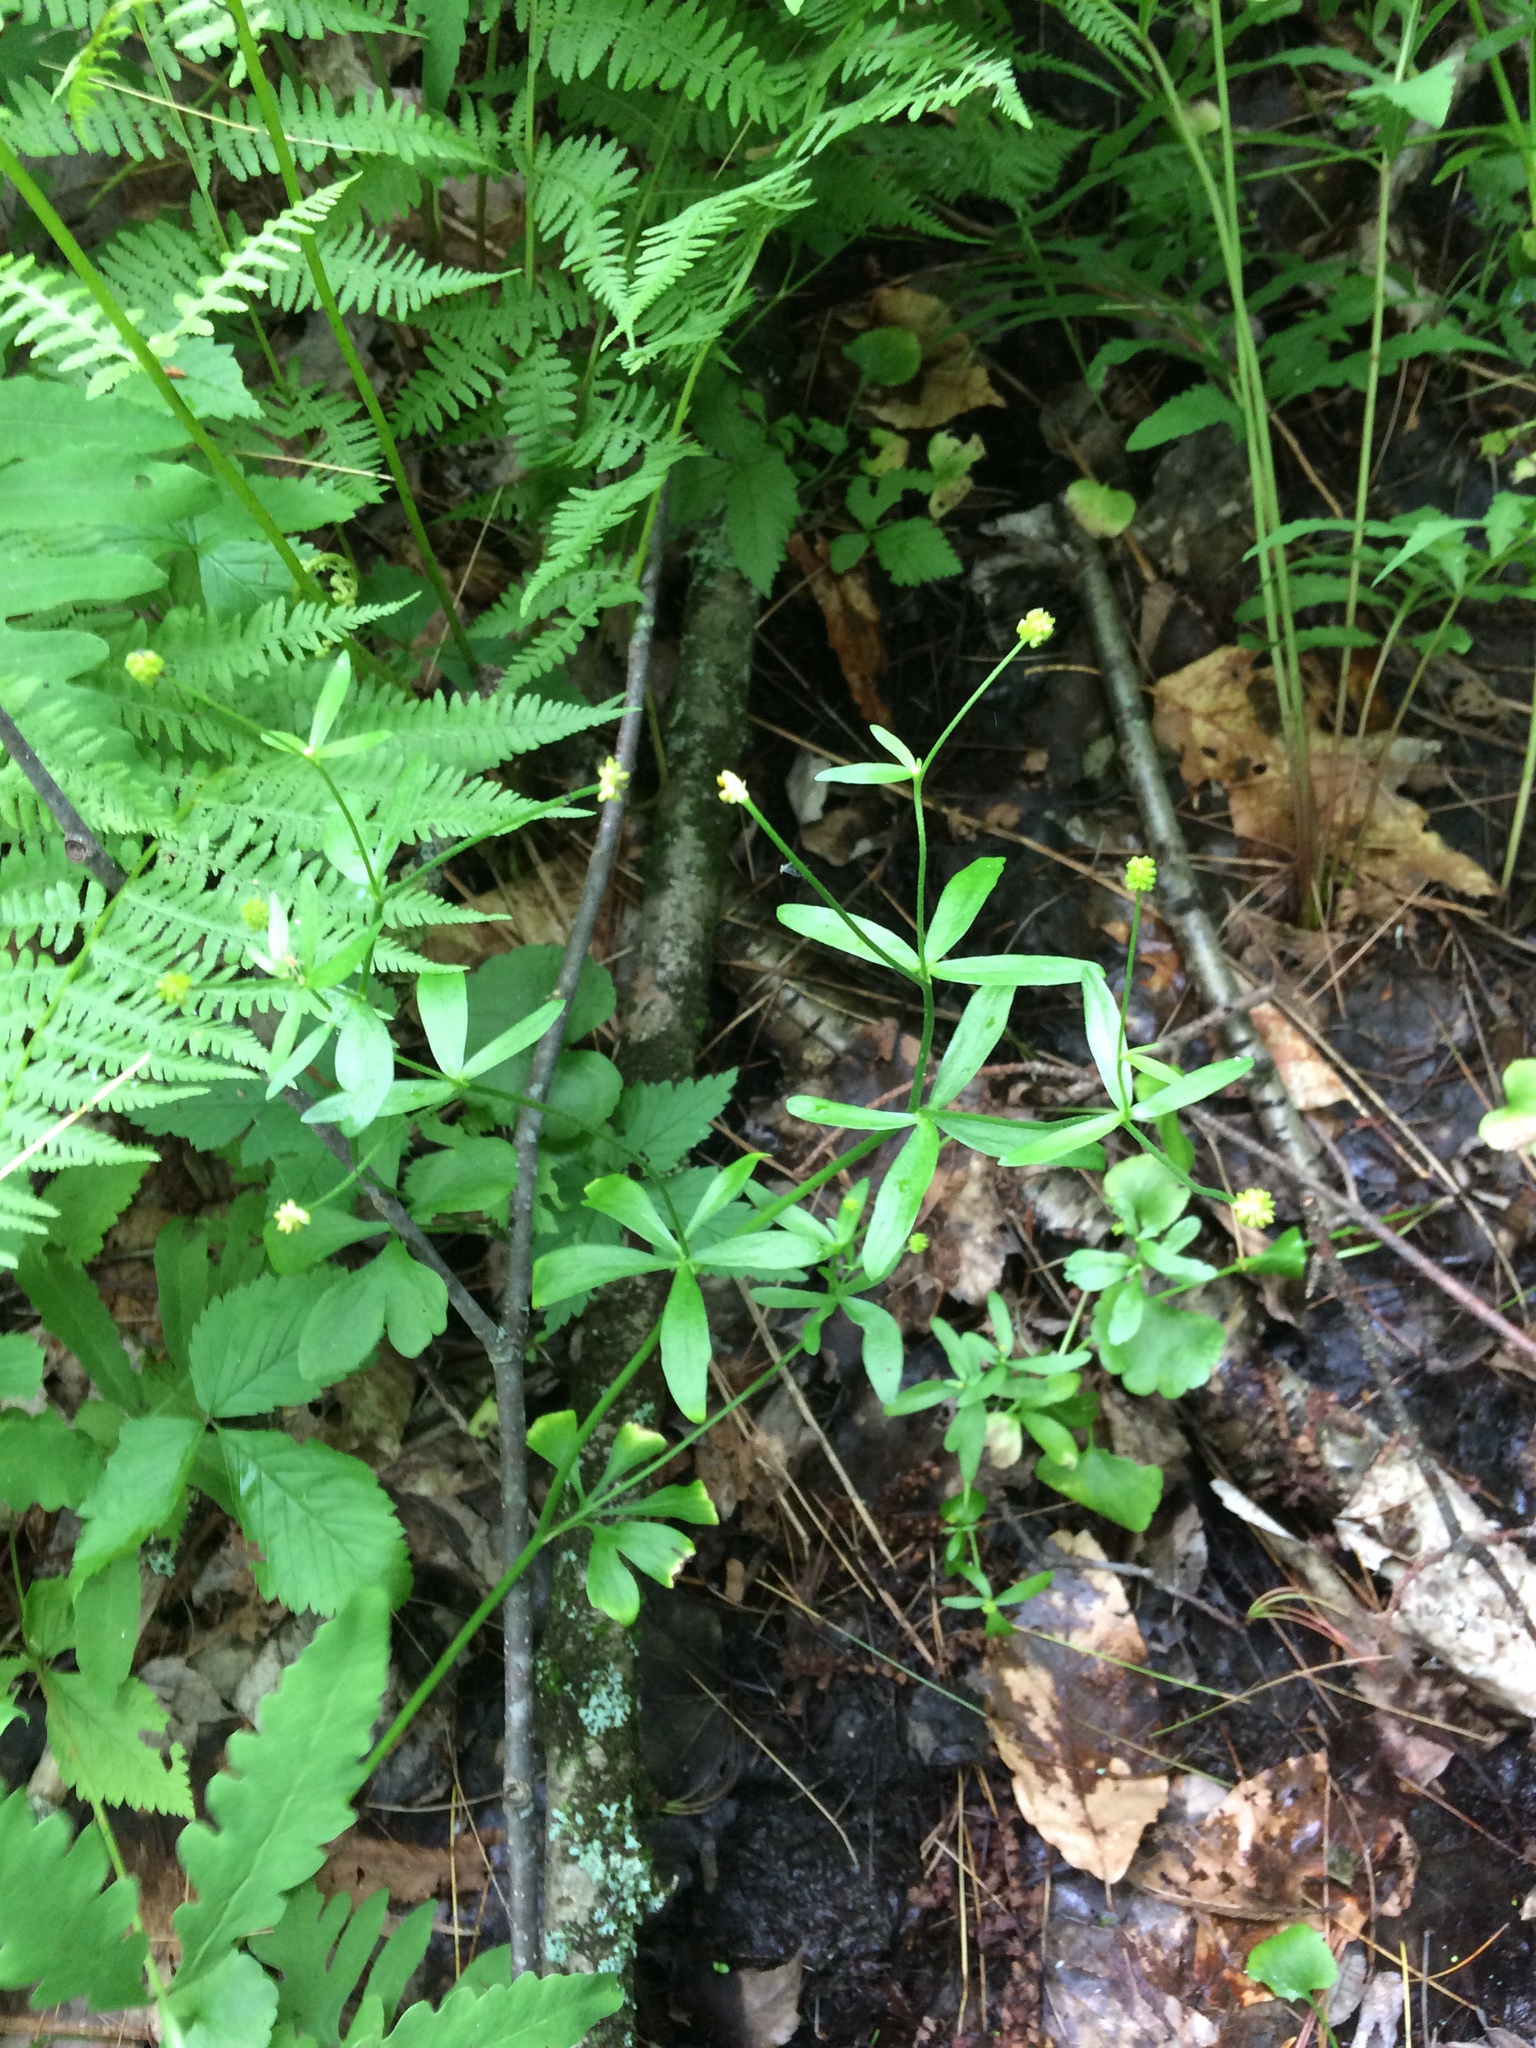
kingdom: Plantae
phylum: Tracheophyta
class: Magnoliopsida
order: Ranunculales
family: Ranunculaceae
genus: Ranunculus
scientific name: Ranunculus abortivus
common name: Early wood buttercup
